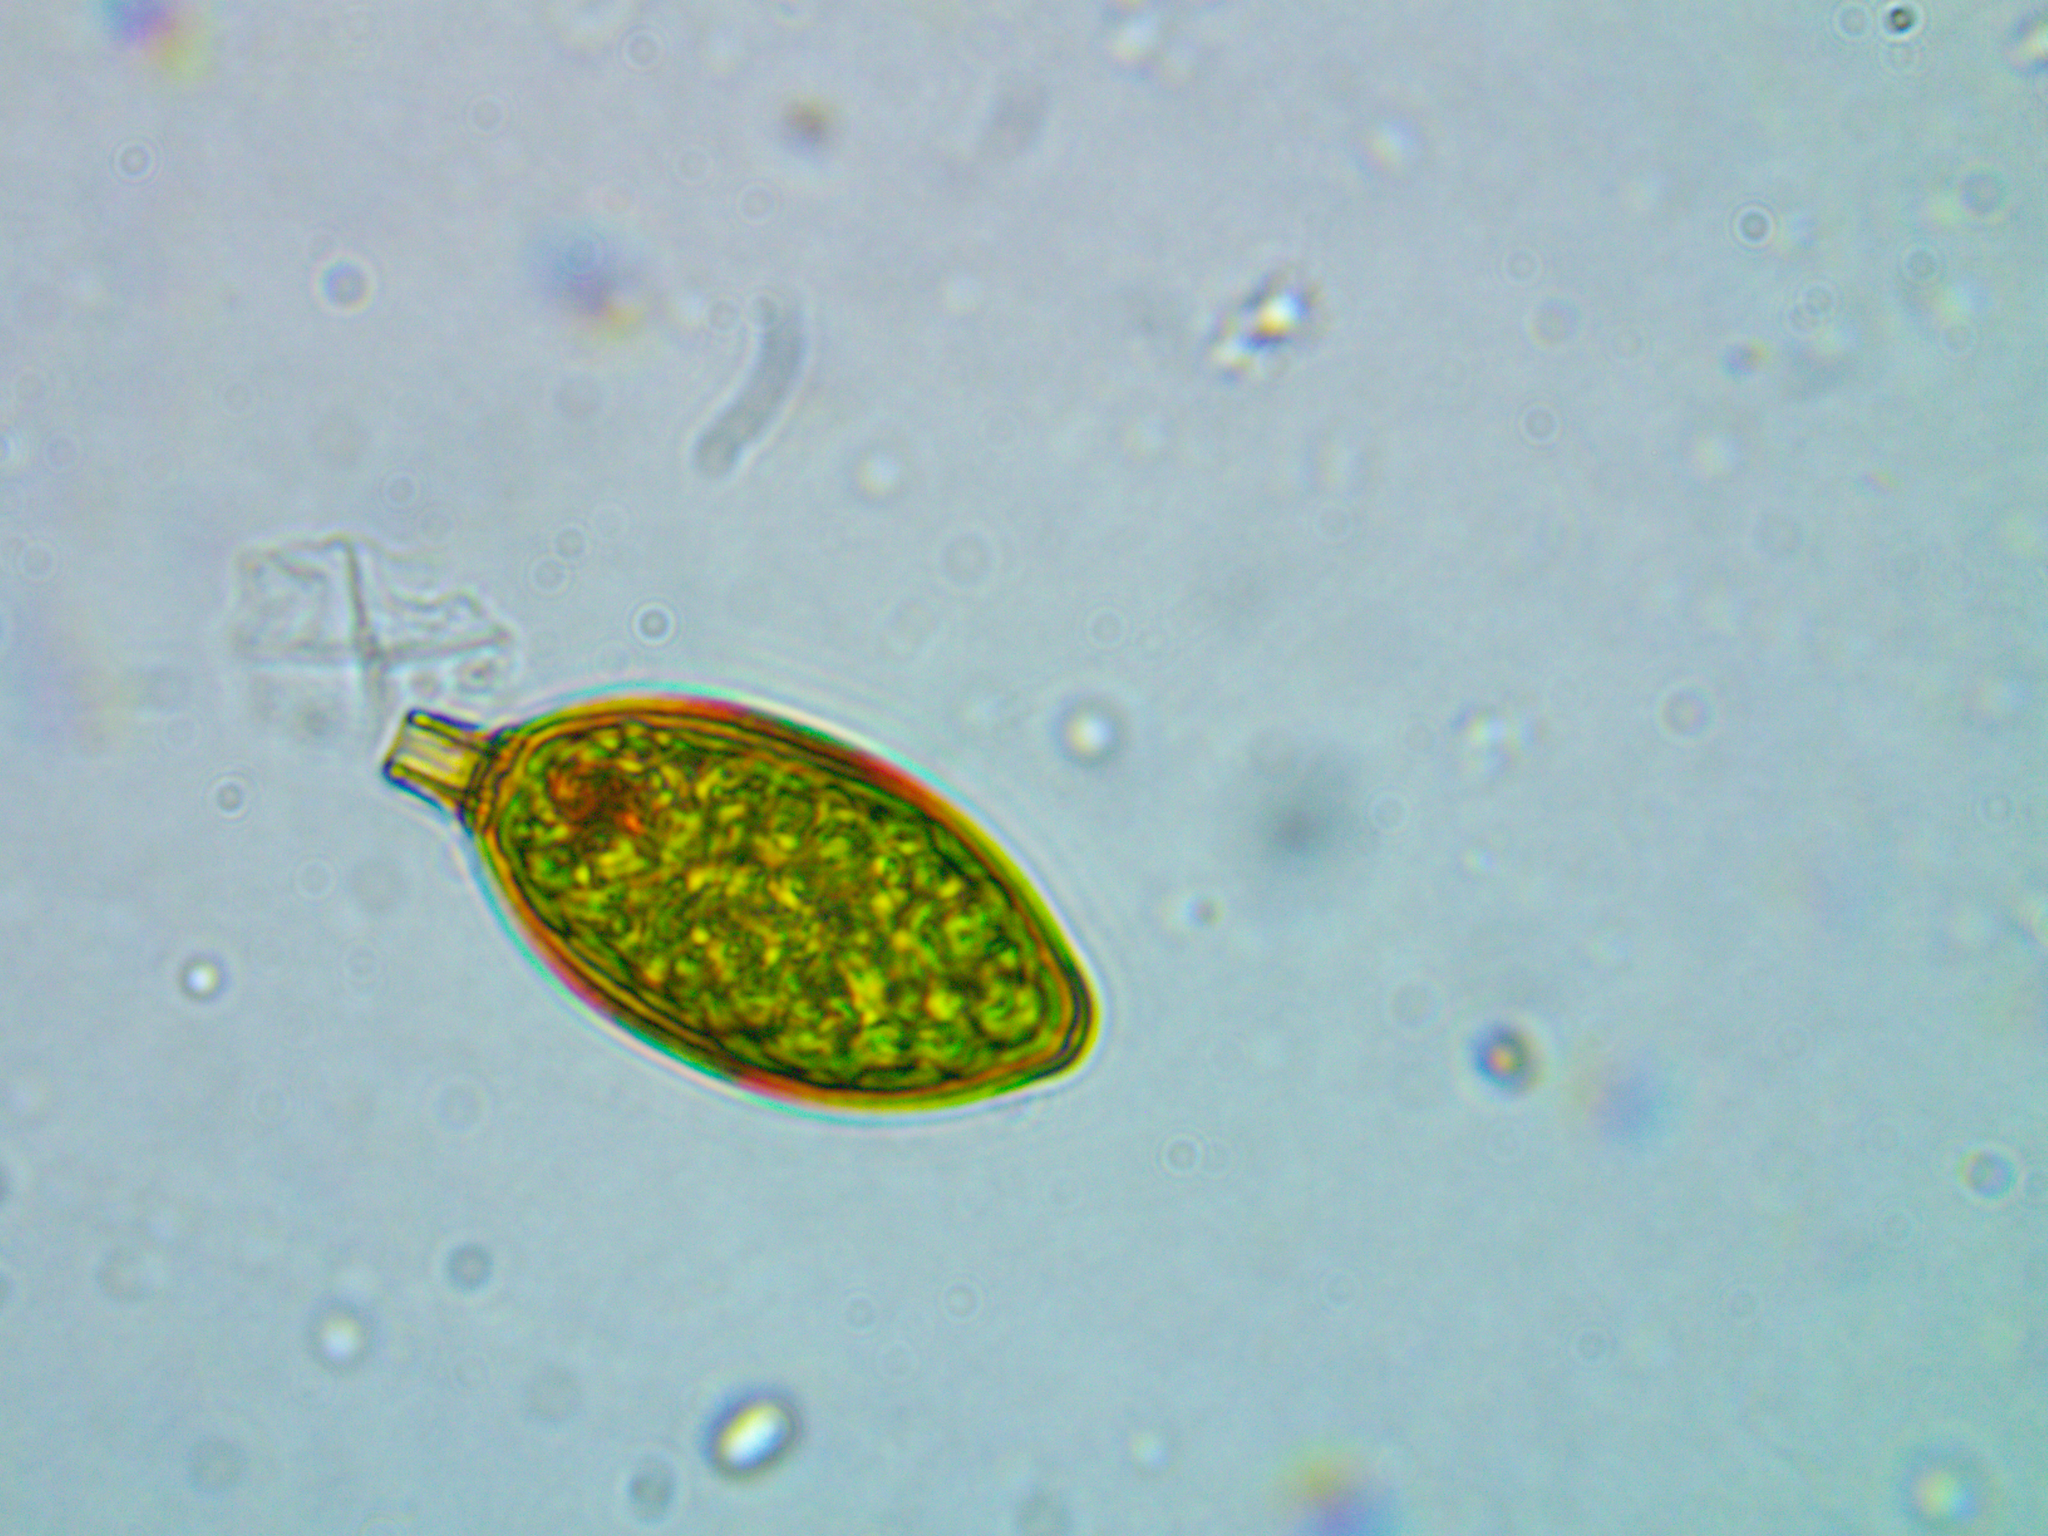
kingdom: Protozoa
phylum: Euglenozoa
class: Euglenoidea
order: Euglenida
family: Euglenaceae
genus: Trachelomonas
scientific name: Trachelomonas hexangulata
